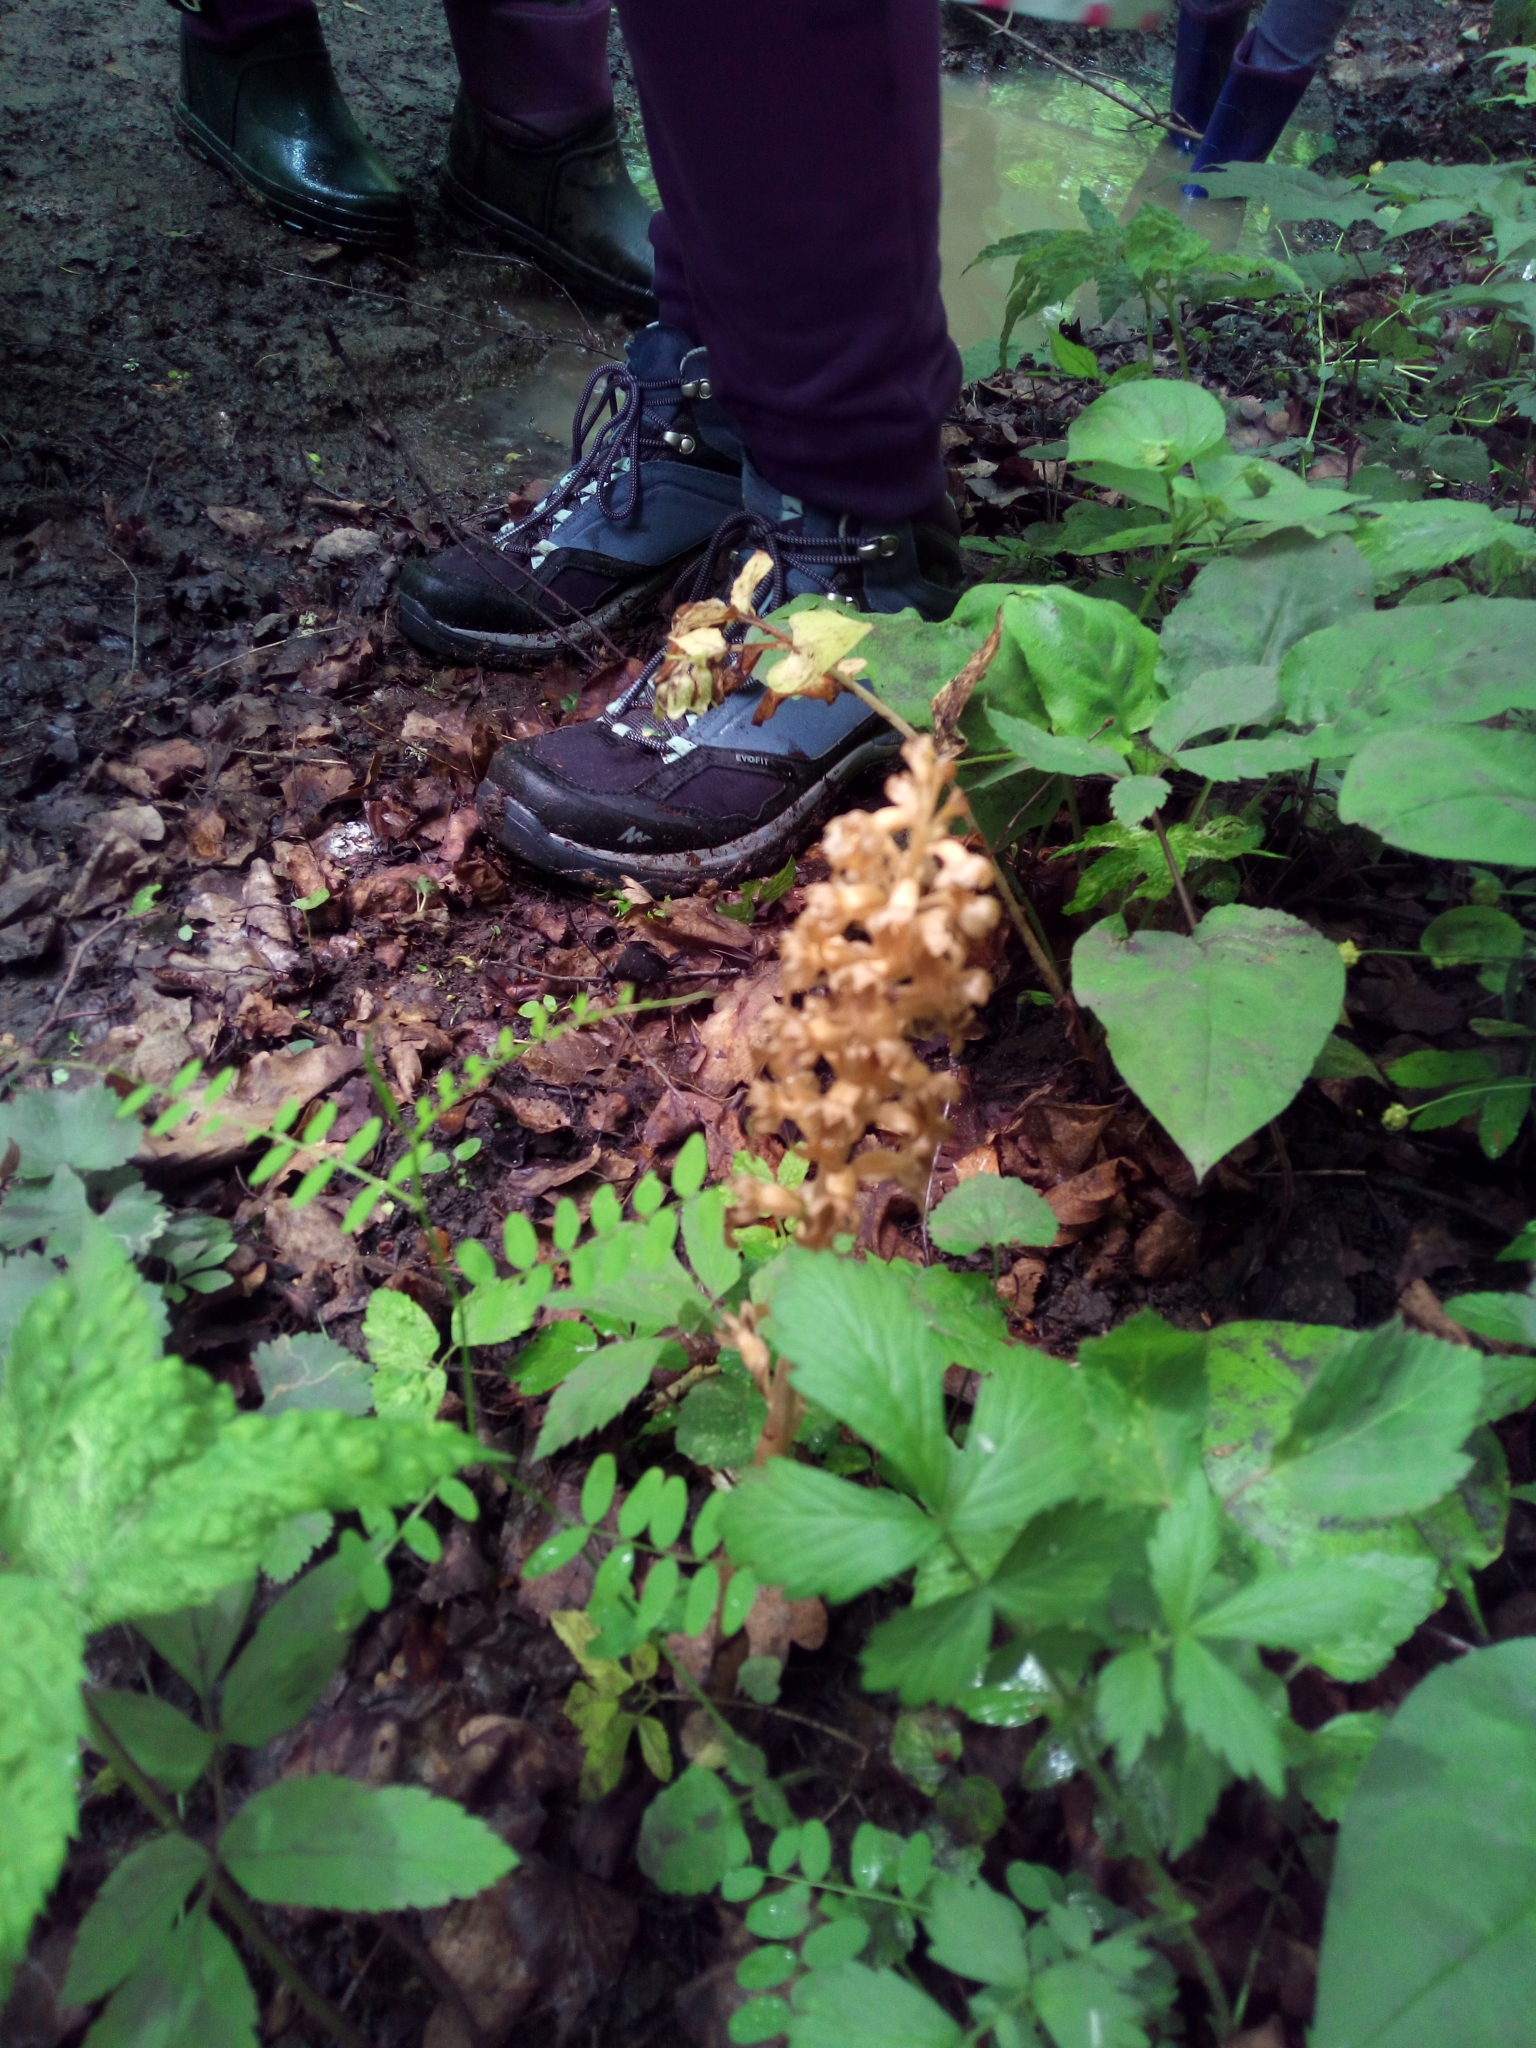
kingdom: Plantae
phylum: Tracheophyta
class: Liliopsida
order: Asparagales
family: Orchidaceae
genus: Neottia
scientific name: Neottia nidus-avis
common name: Bird's-nest orchid
